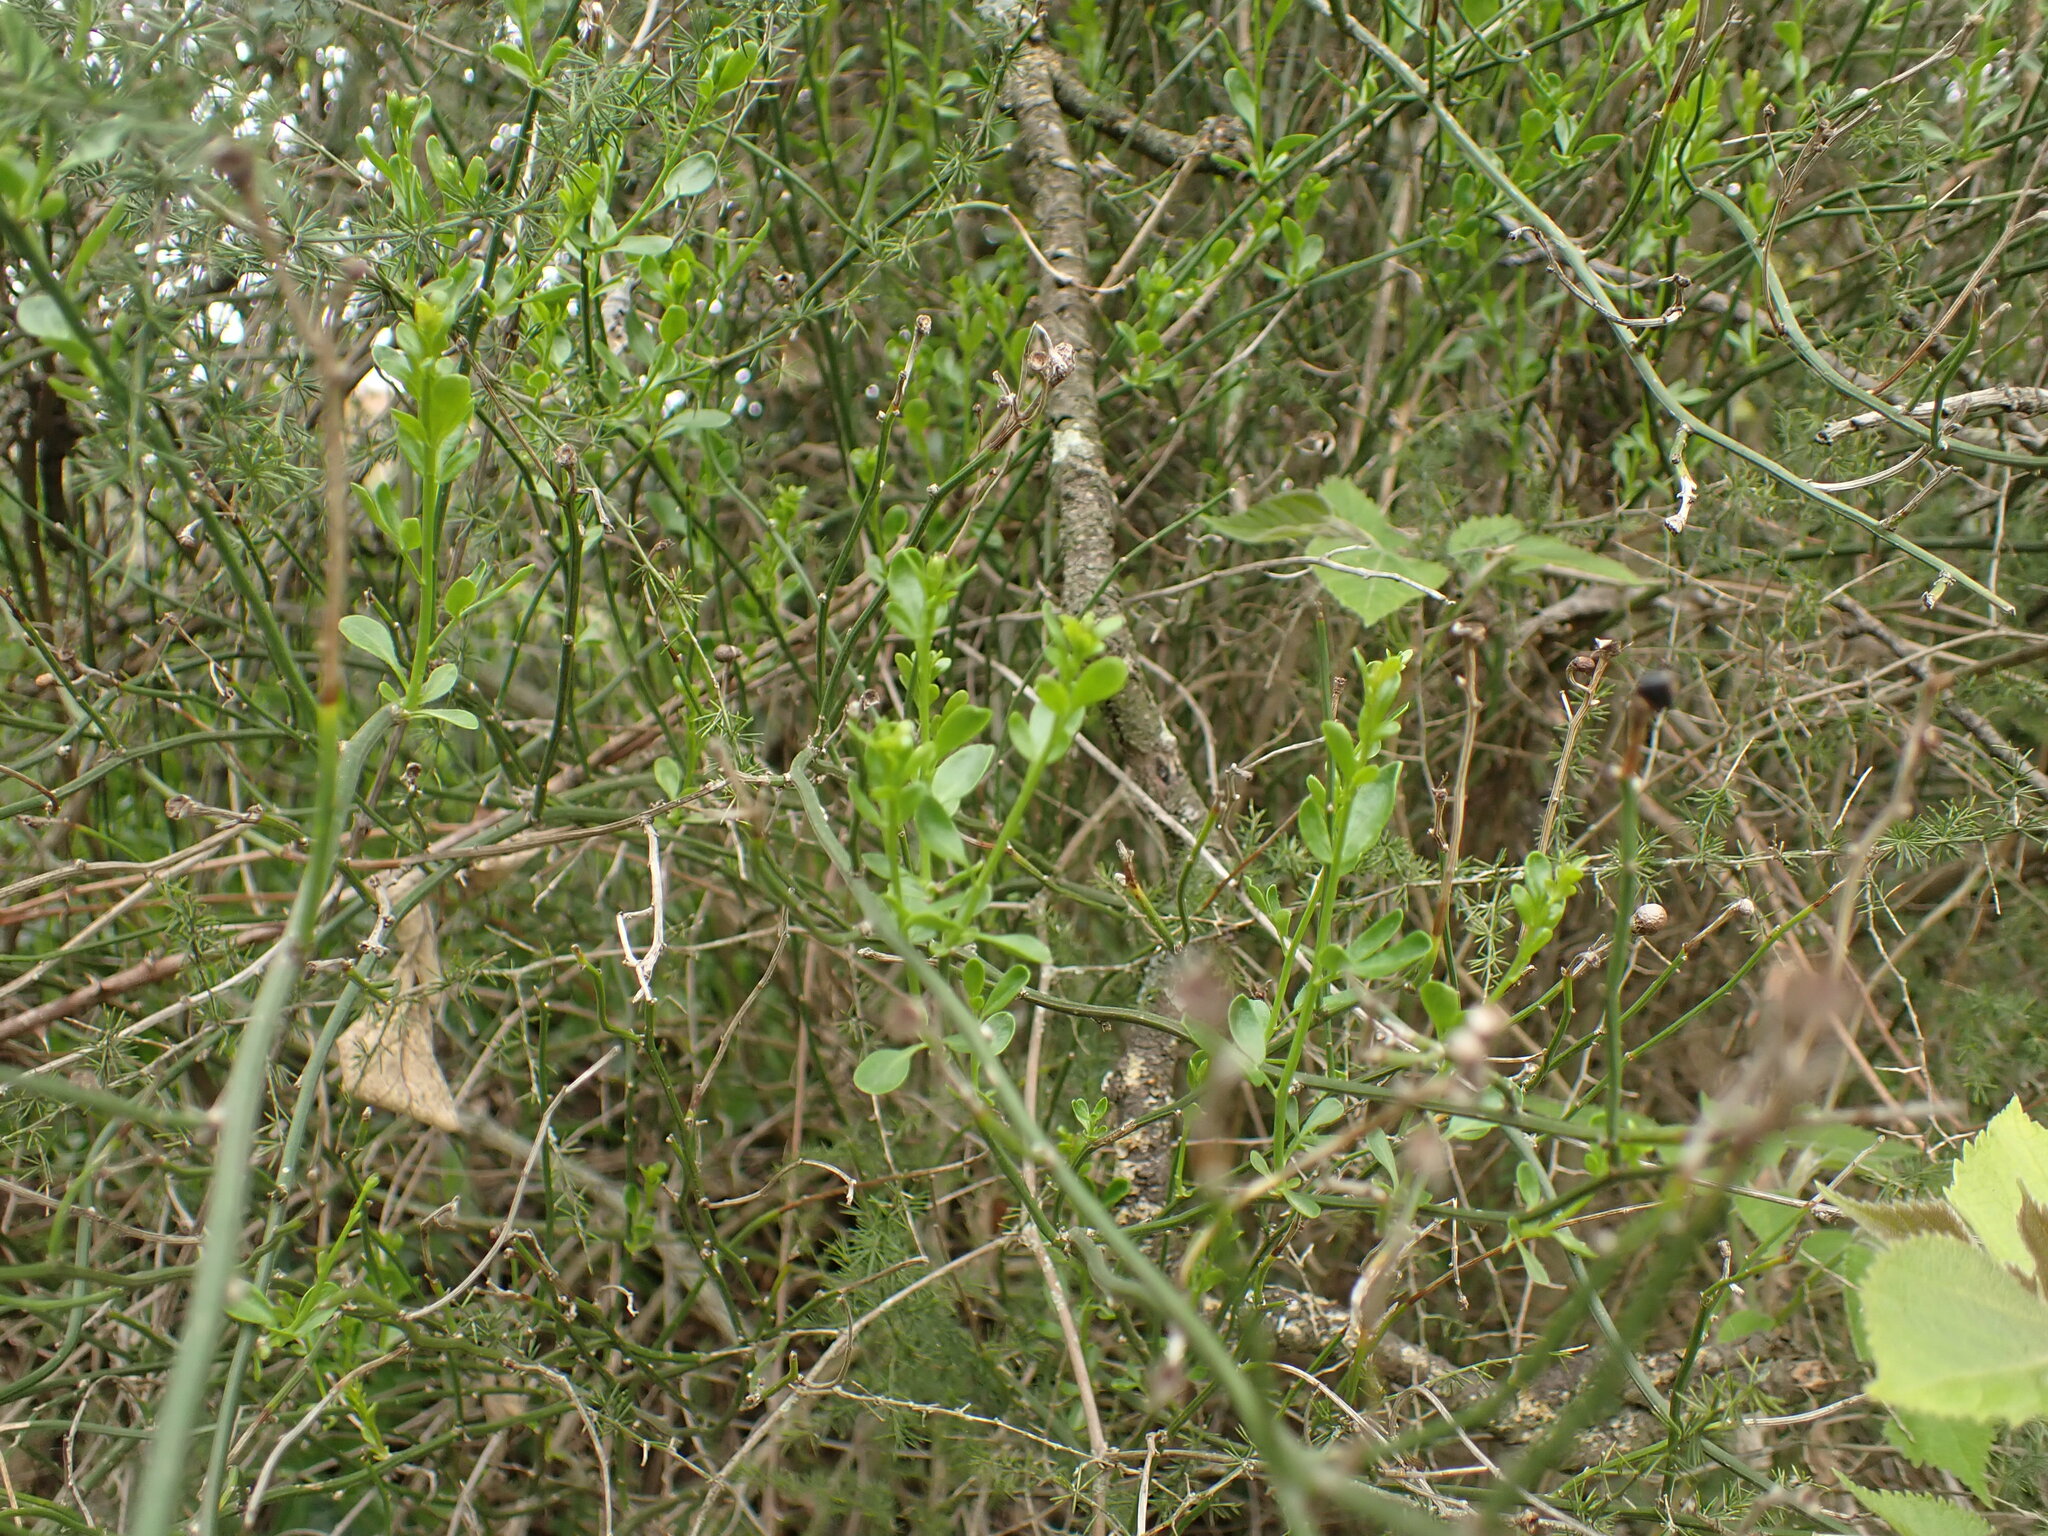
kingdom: Plantae
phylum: Tracheophyta
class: Magnoliopsida
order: Lamiales
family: Oleaceae
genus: Chrysojasminum
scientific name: Chrysojasminum fruticans
